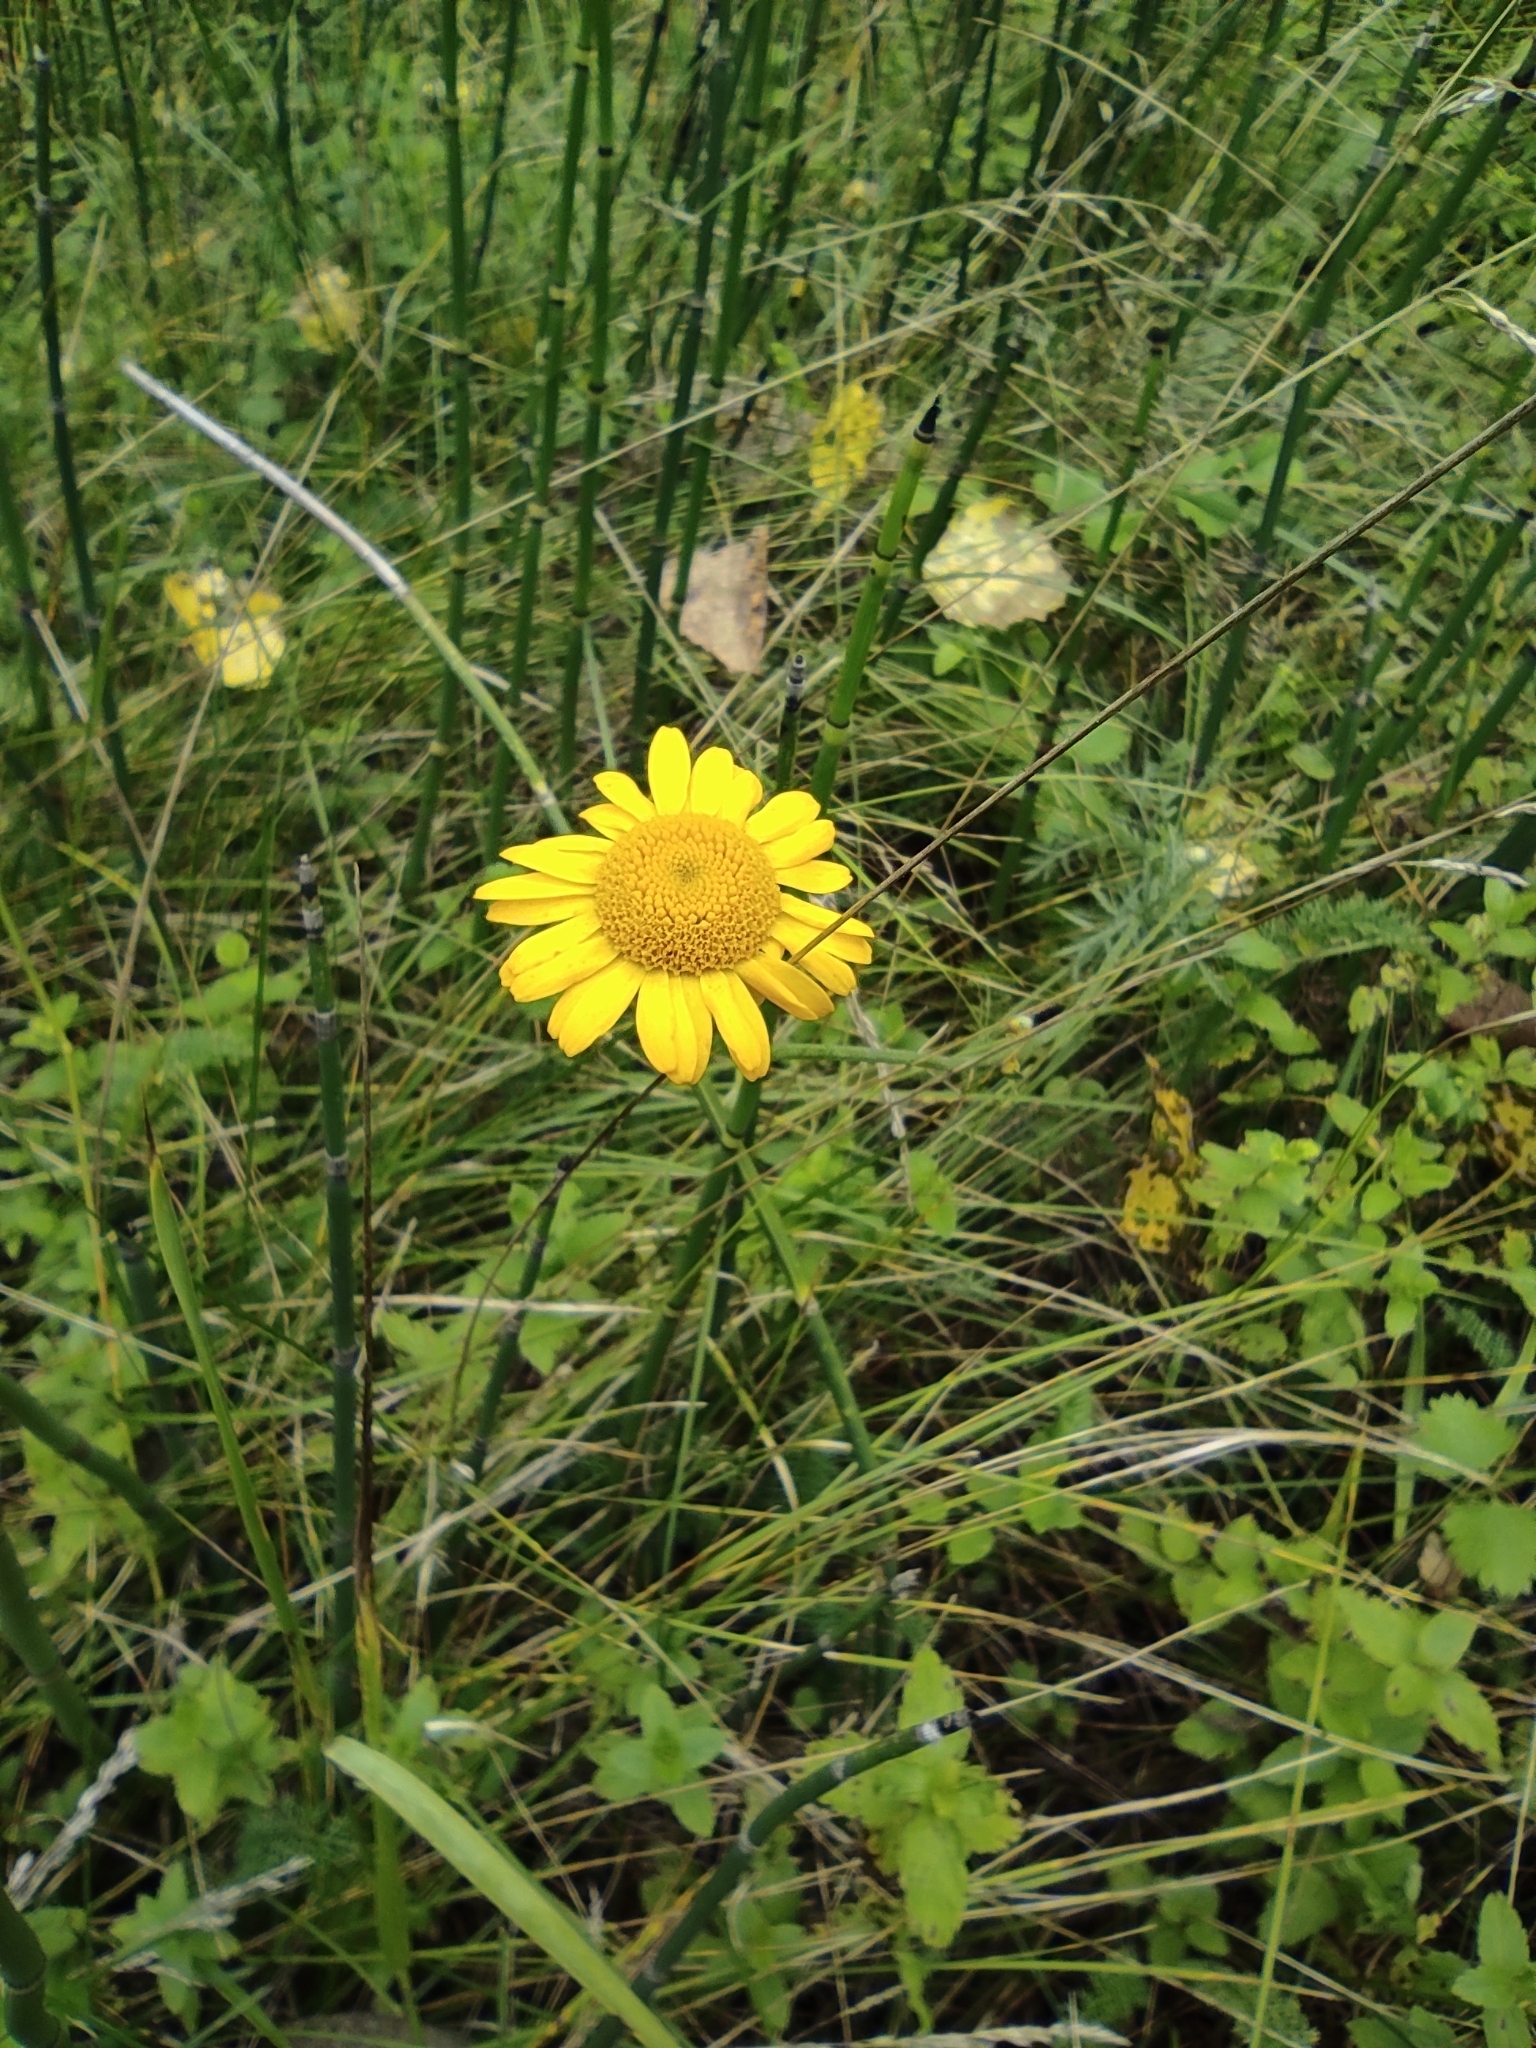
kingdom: Plantae
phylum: Tracheophyta
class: Magnoliopsida
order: Asterales
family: Asteraceae
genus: Cota
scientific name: Cota tinctoria
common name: Golden chamomile
